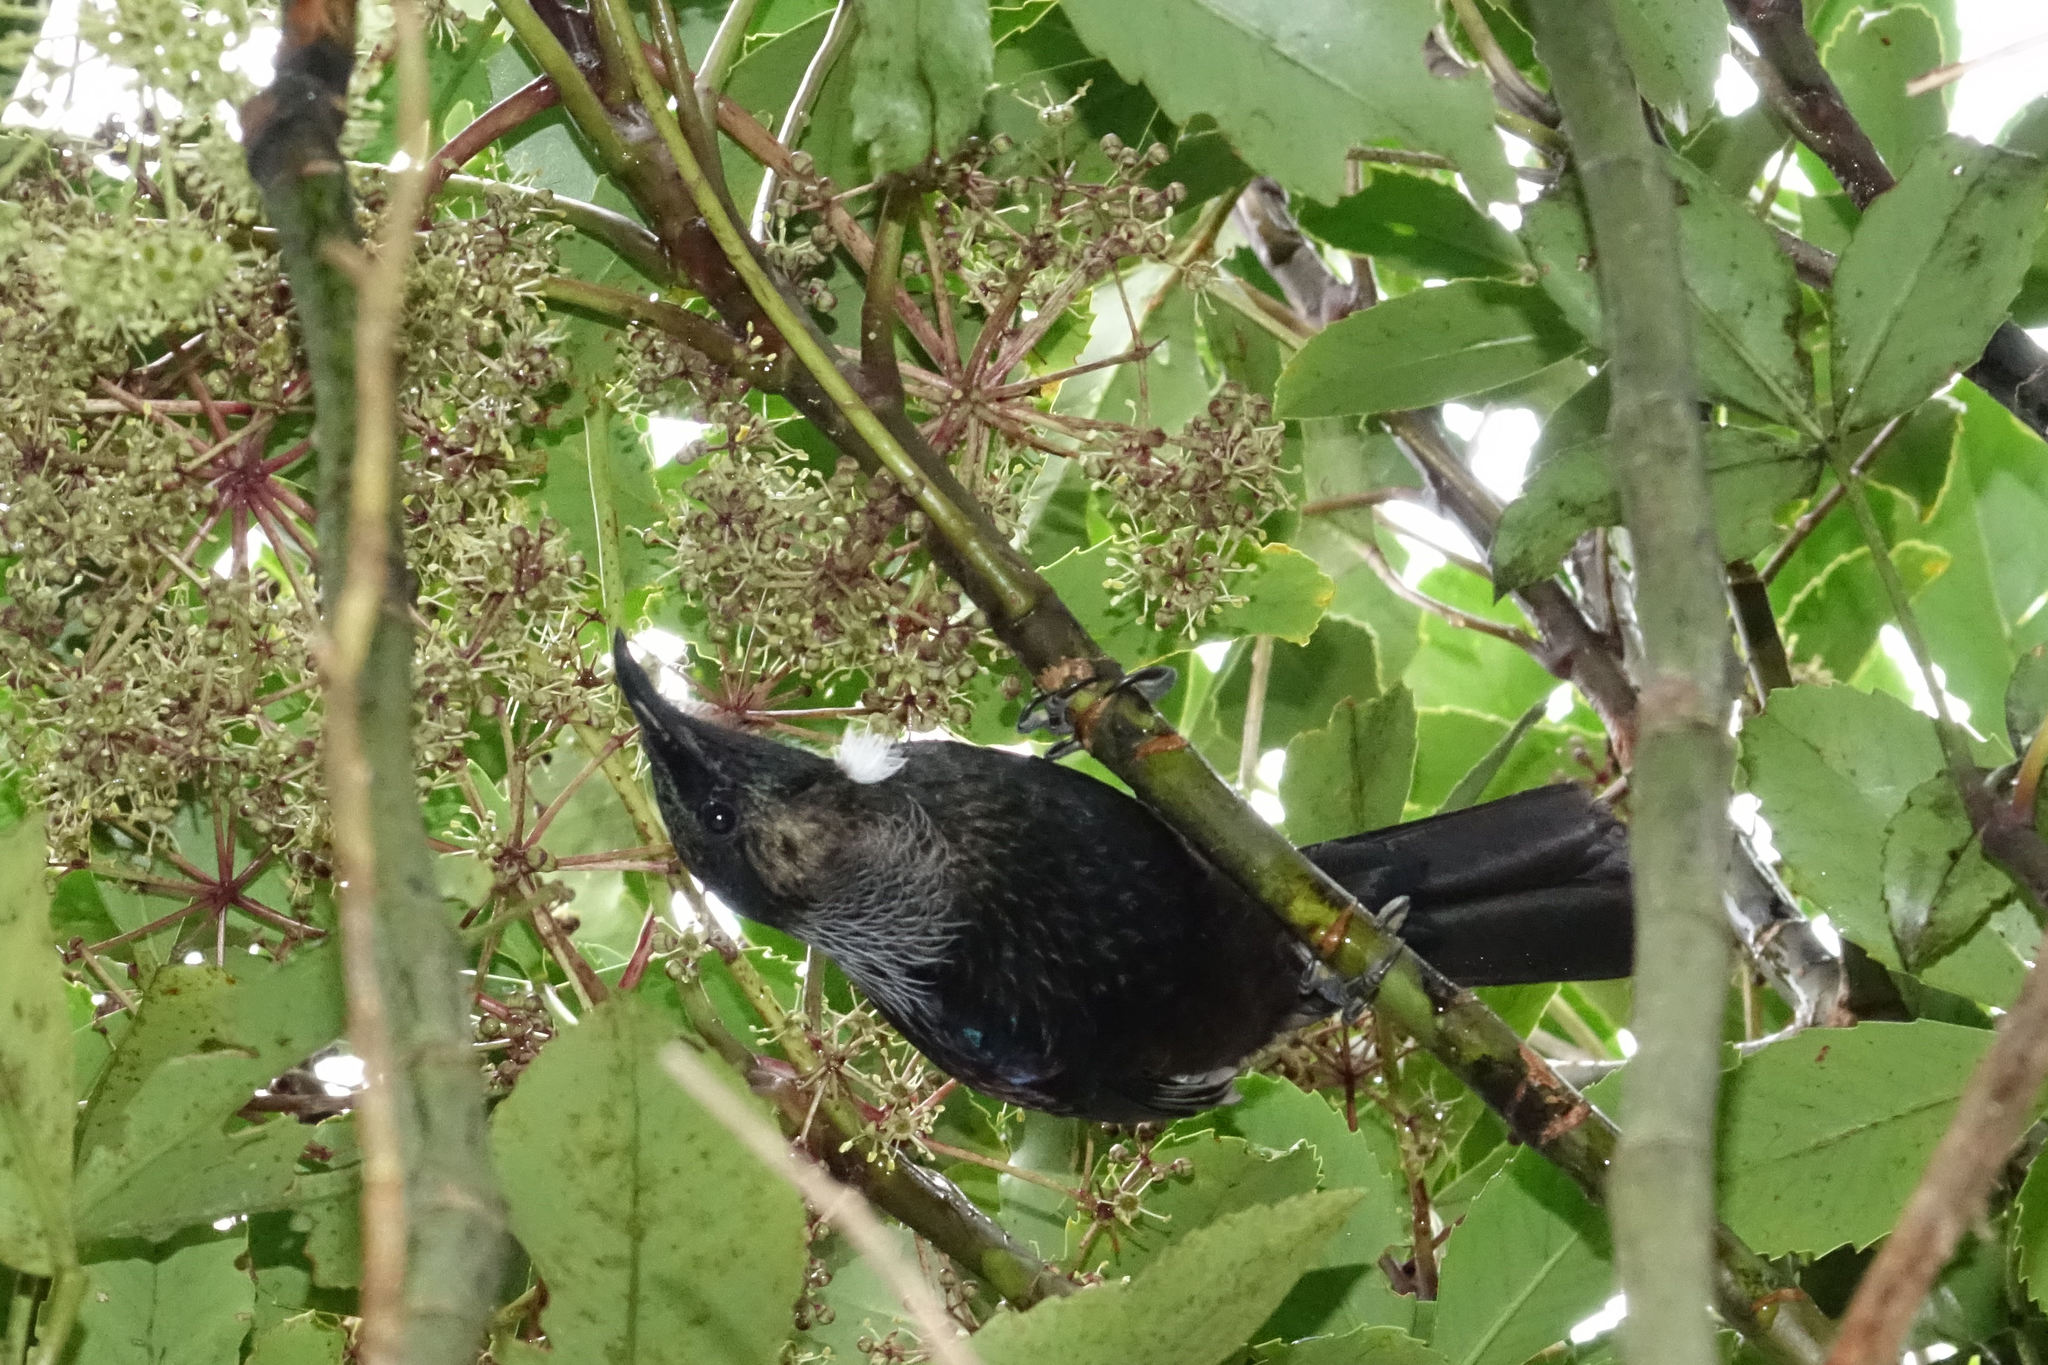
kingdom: Animalia
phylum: Chordata
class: Aves
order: Passeriformes
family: Meliphagidae
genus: Prosthemadera
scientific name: Prosthemadera novaeseelandiae
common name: Tui
